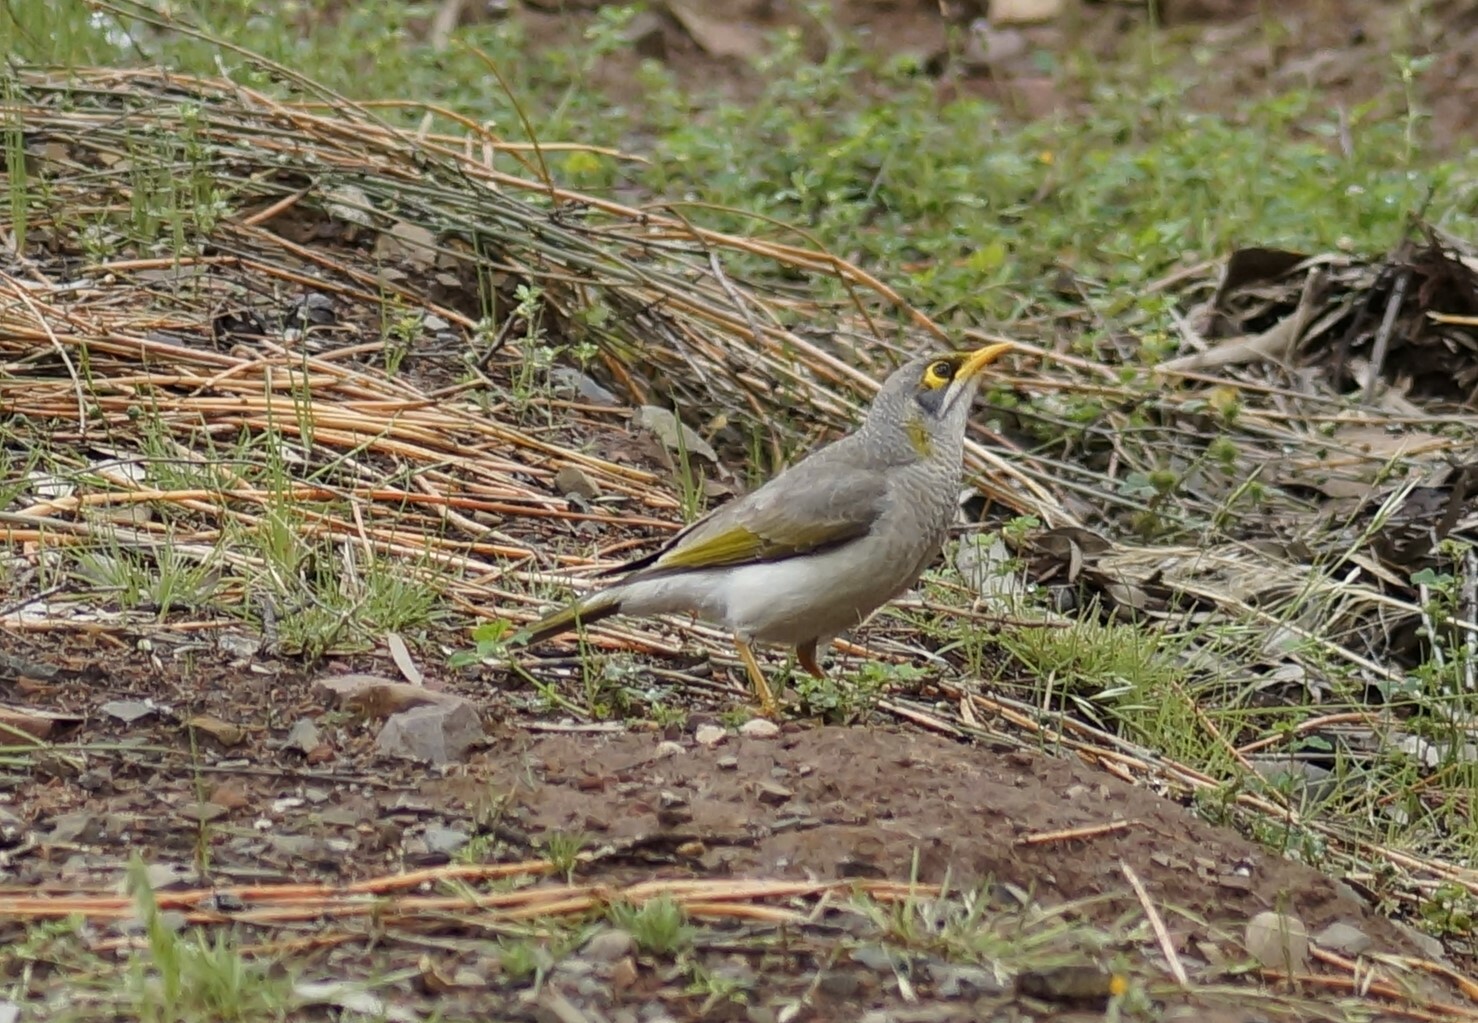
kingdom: Animalia
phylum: Chordata
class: Aves
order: Passeriformes
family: Meliphagidae
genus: Manorina
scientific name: Manorina flavigula
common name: Yellow-throated miner
